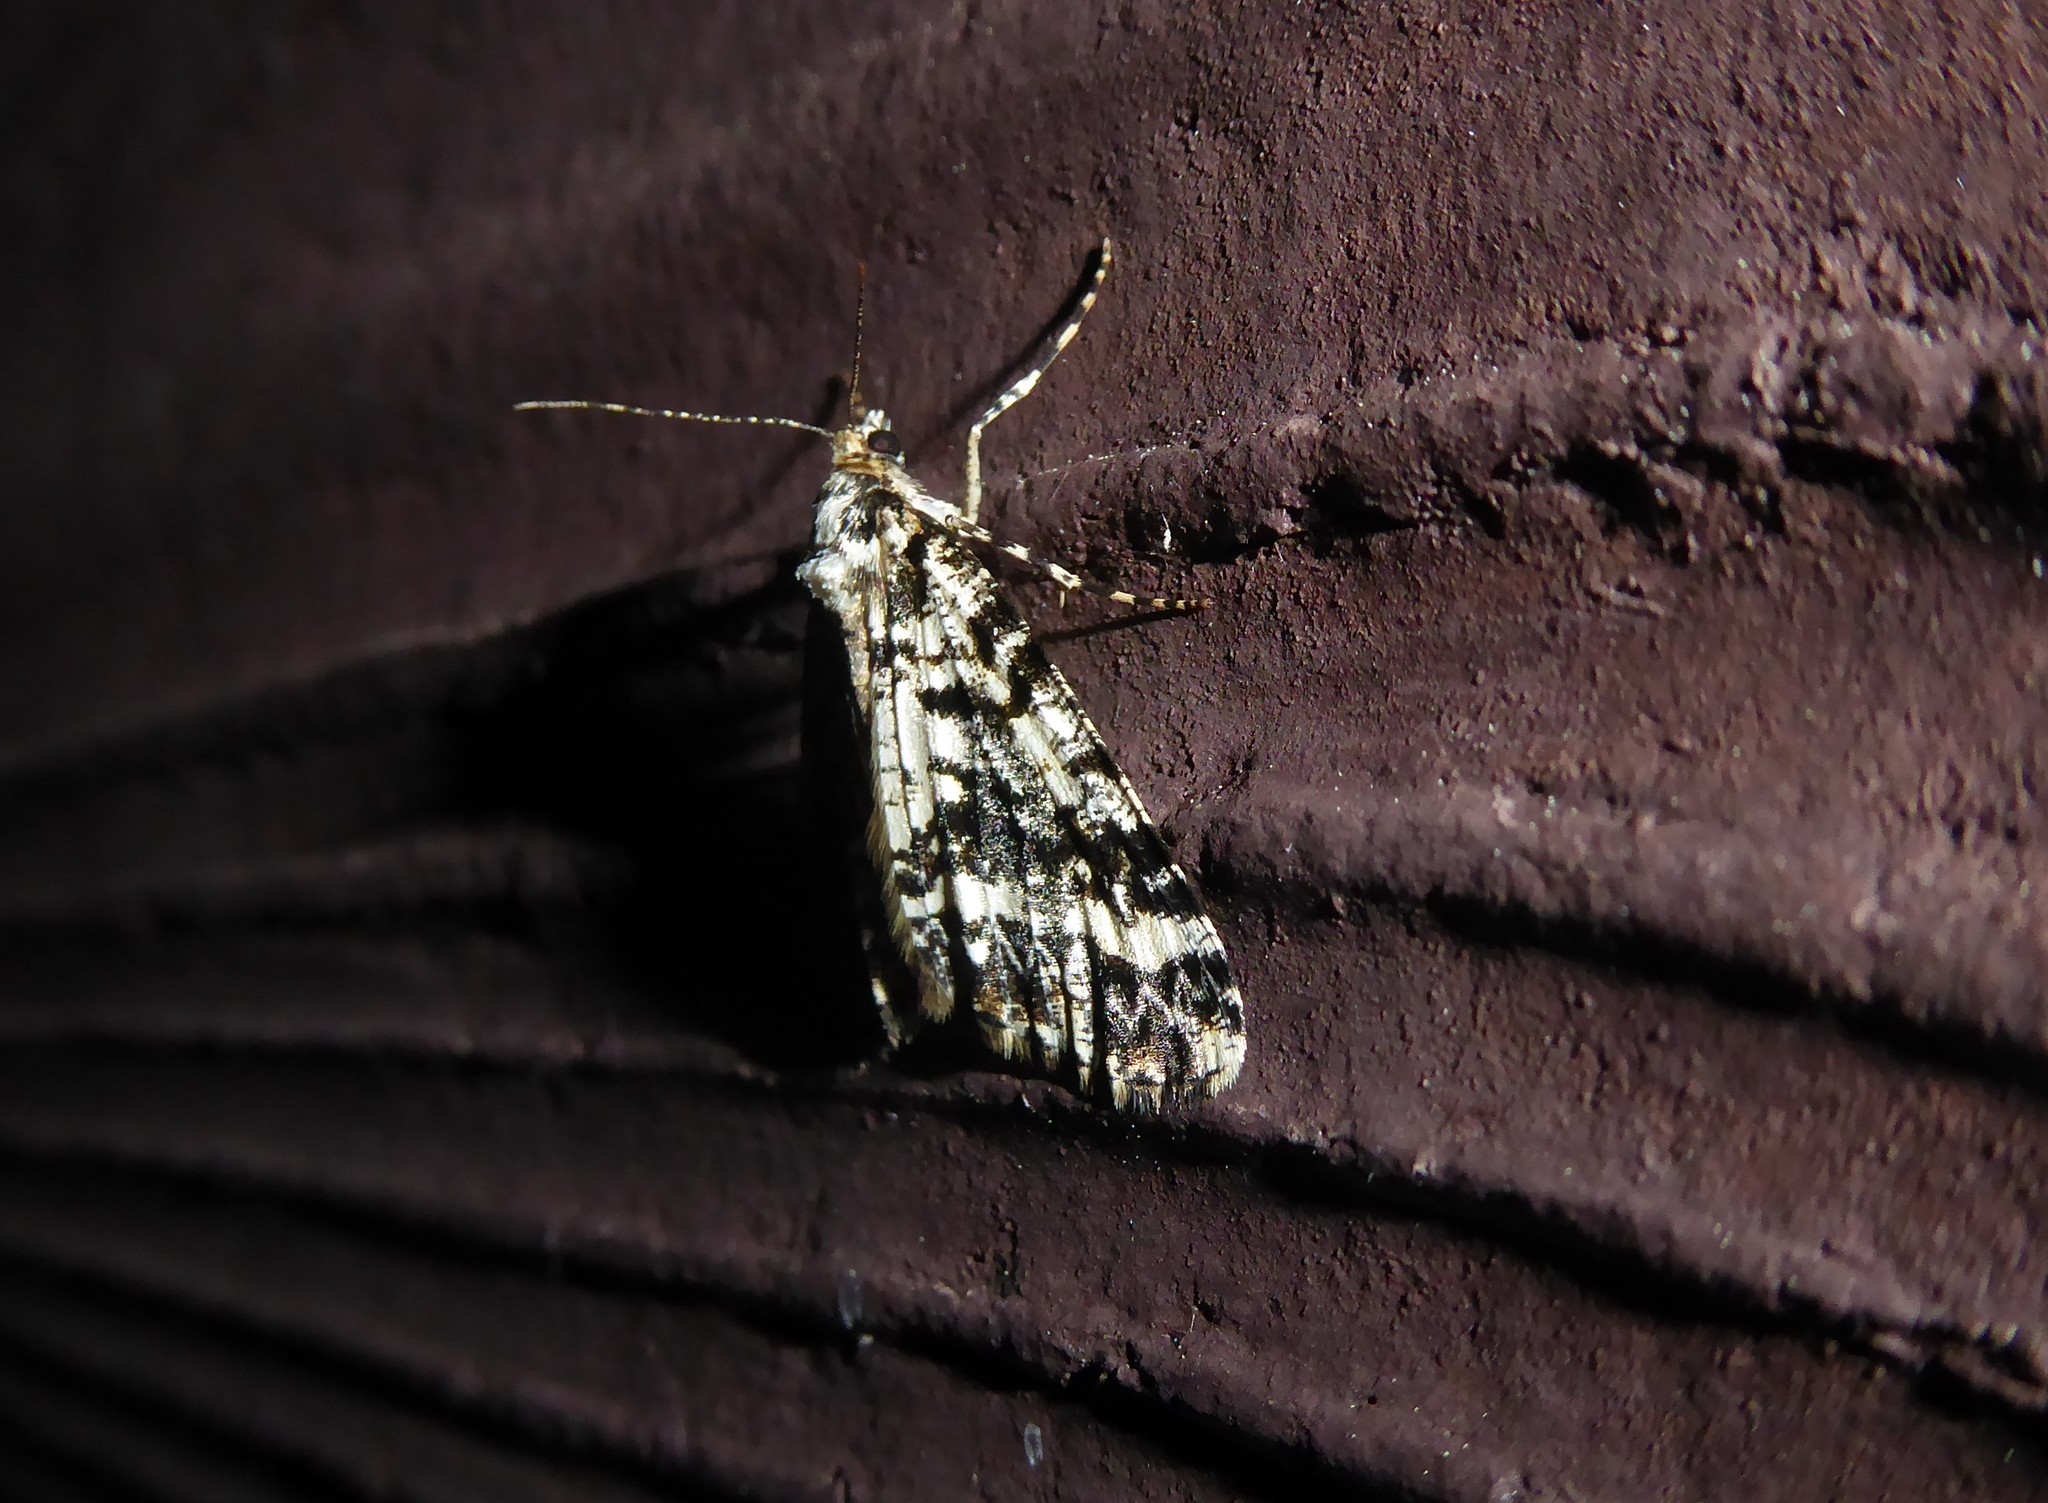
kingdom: Animalia
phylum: Arthropoda
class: Insecta
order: Lepidoptera
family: Geometridae
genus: Pseudocoremia
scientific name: Pseudocoremia leucelaea
